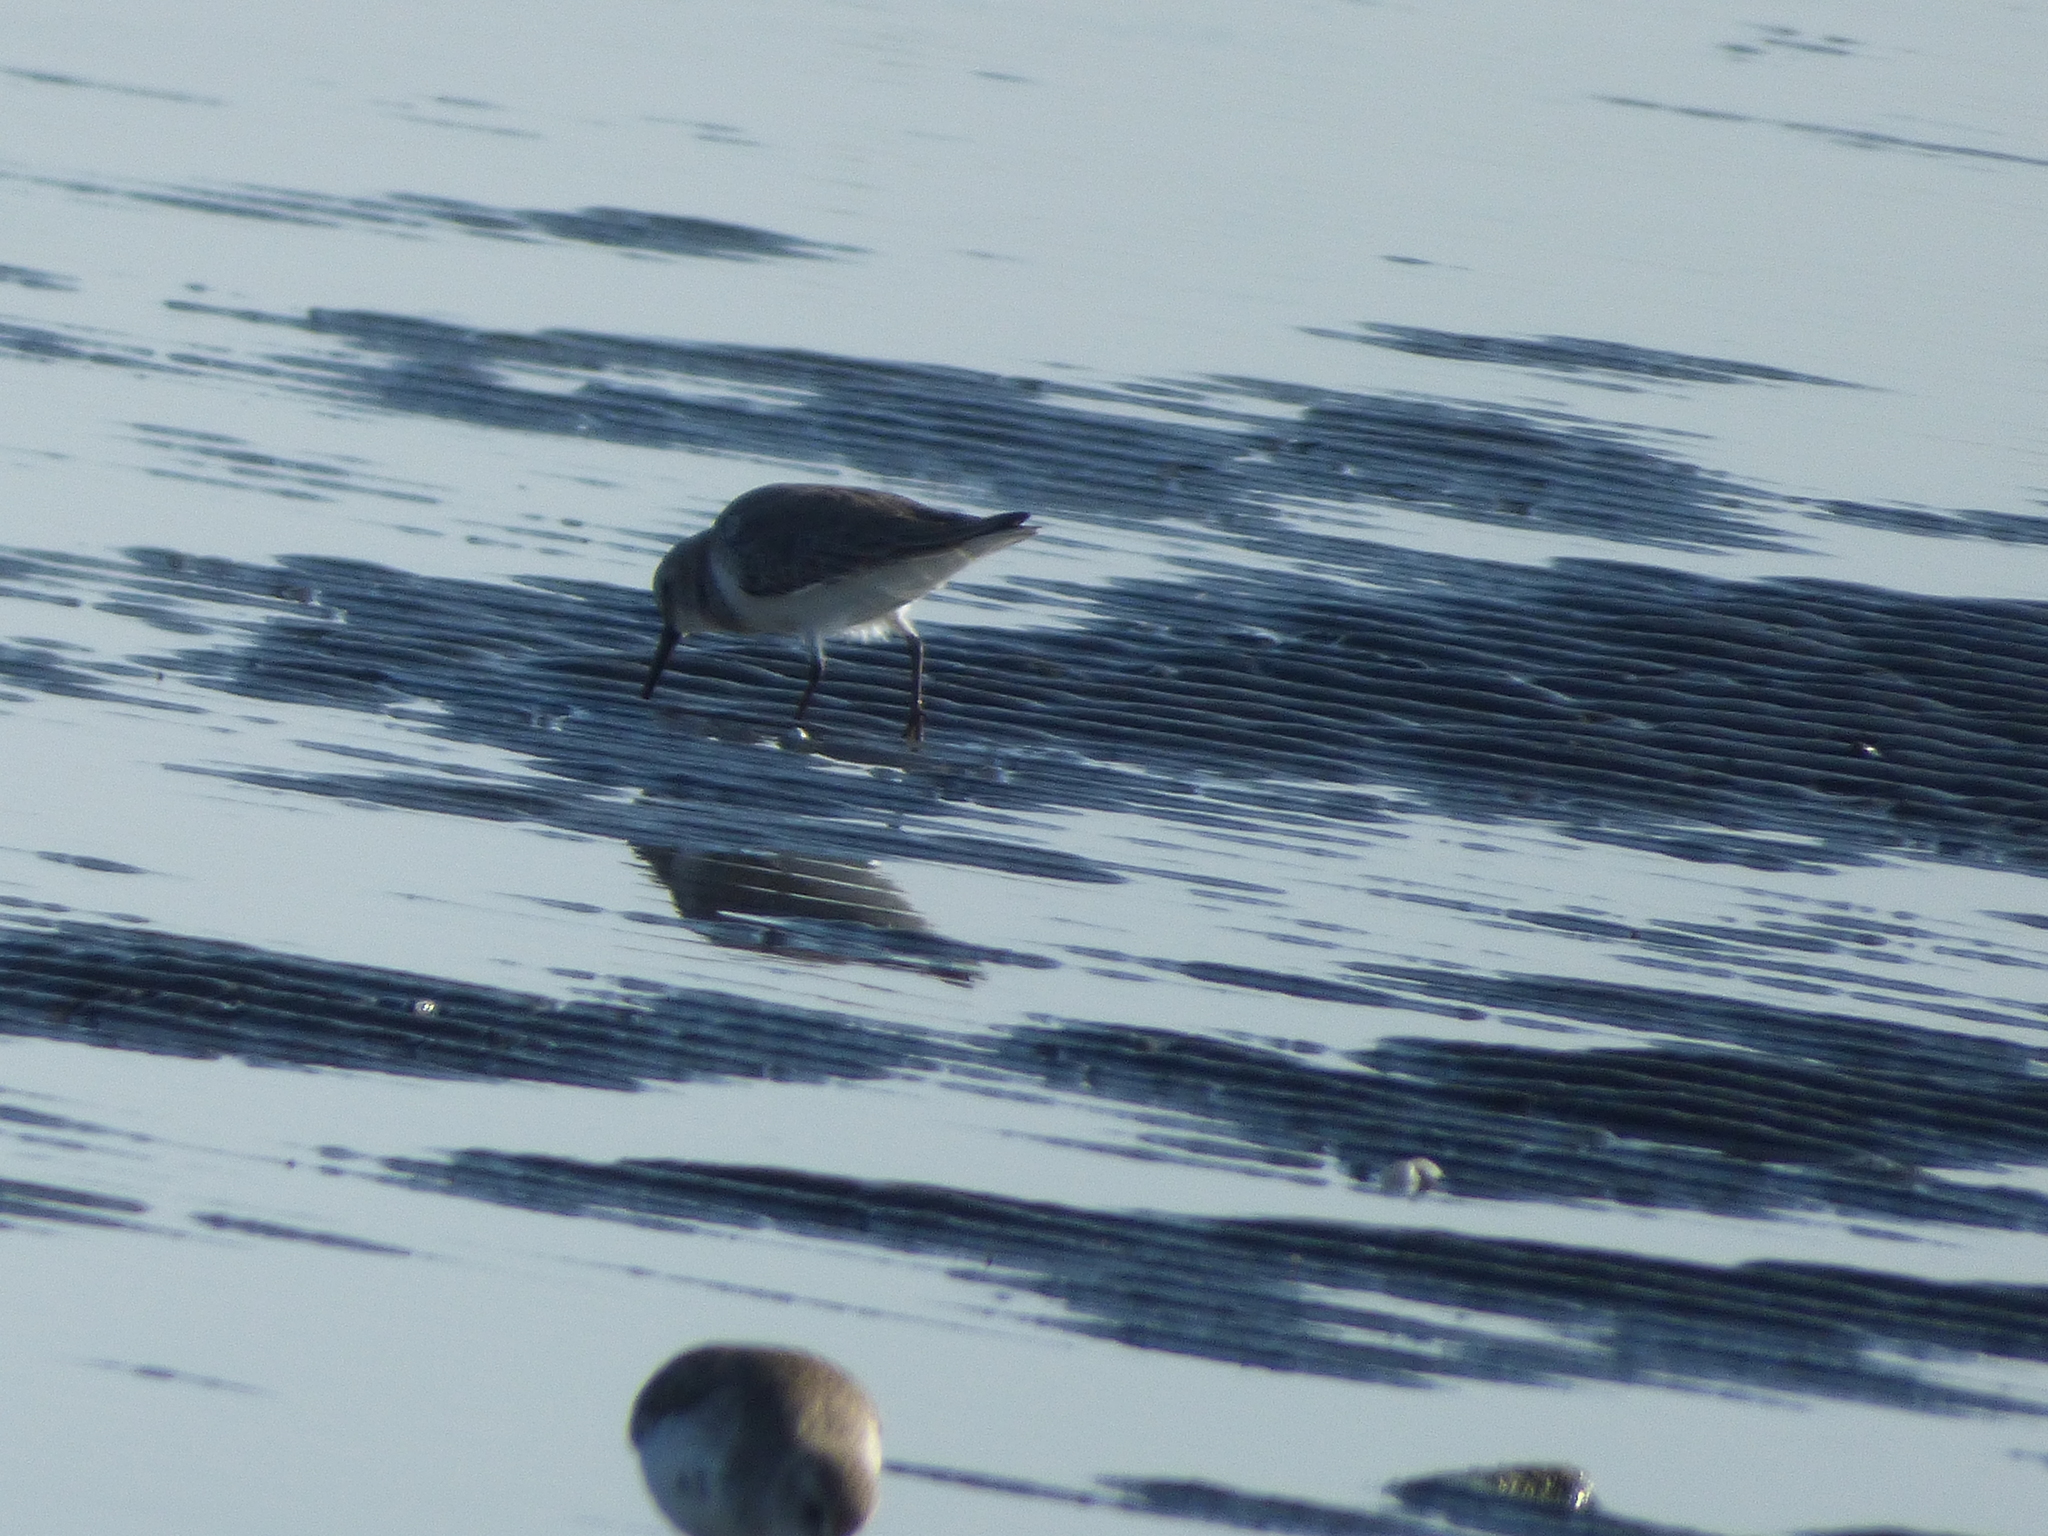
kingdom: Animalia
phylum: Chordata
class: Aves
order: Charadriiformes
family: Scolopacidae
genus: Calidris
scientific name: Calidris alpina
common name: Dunlin
